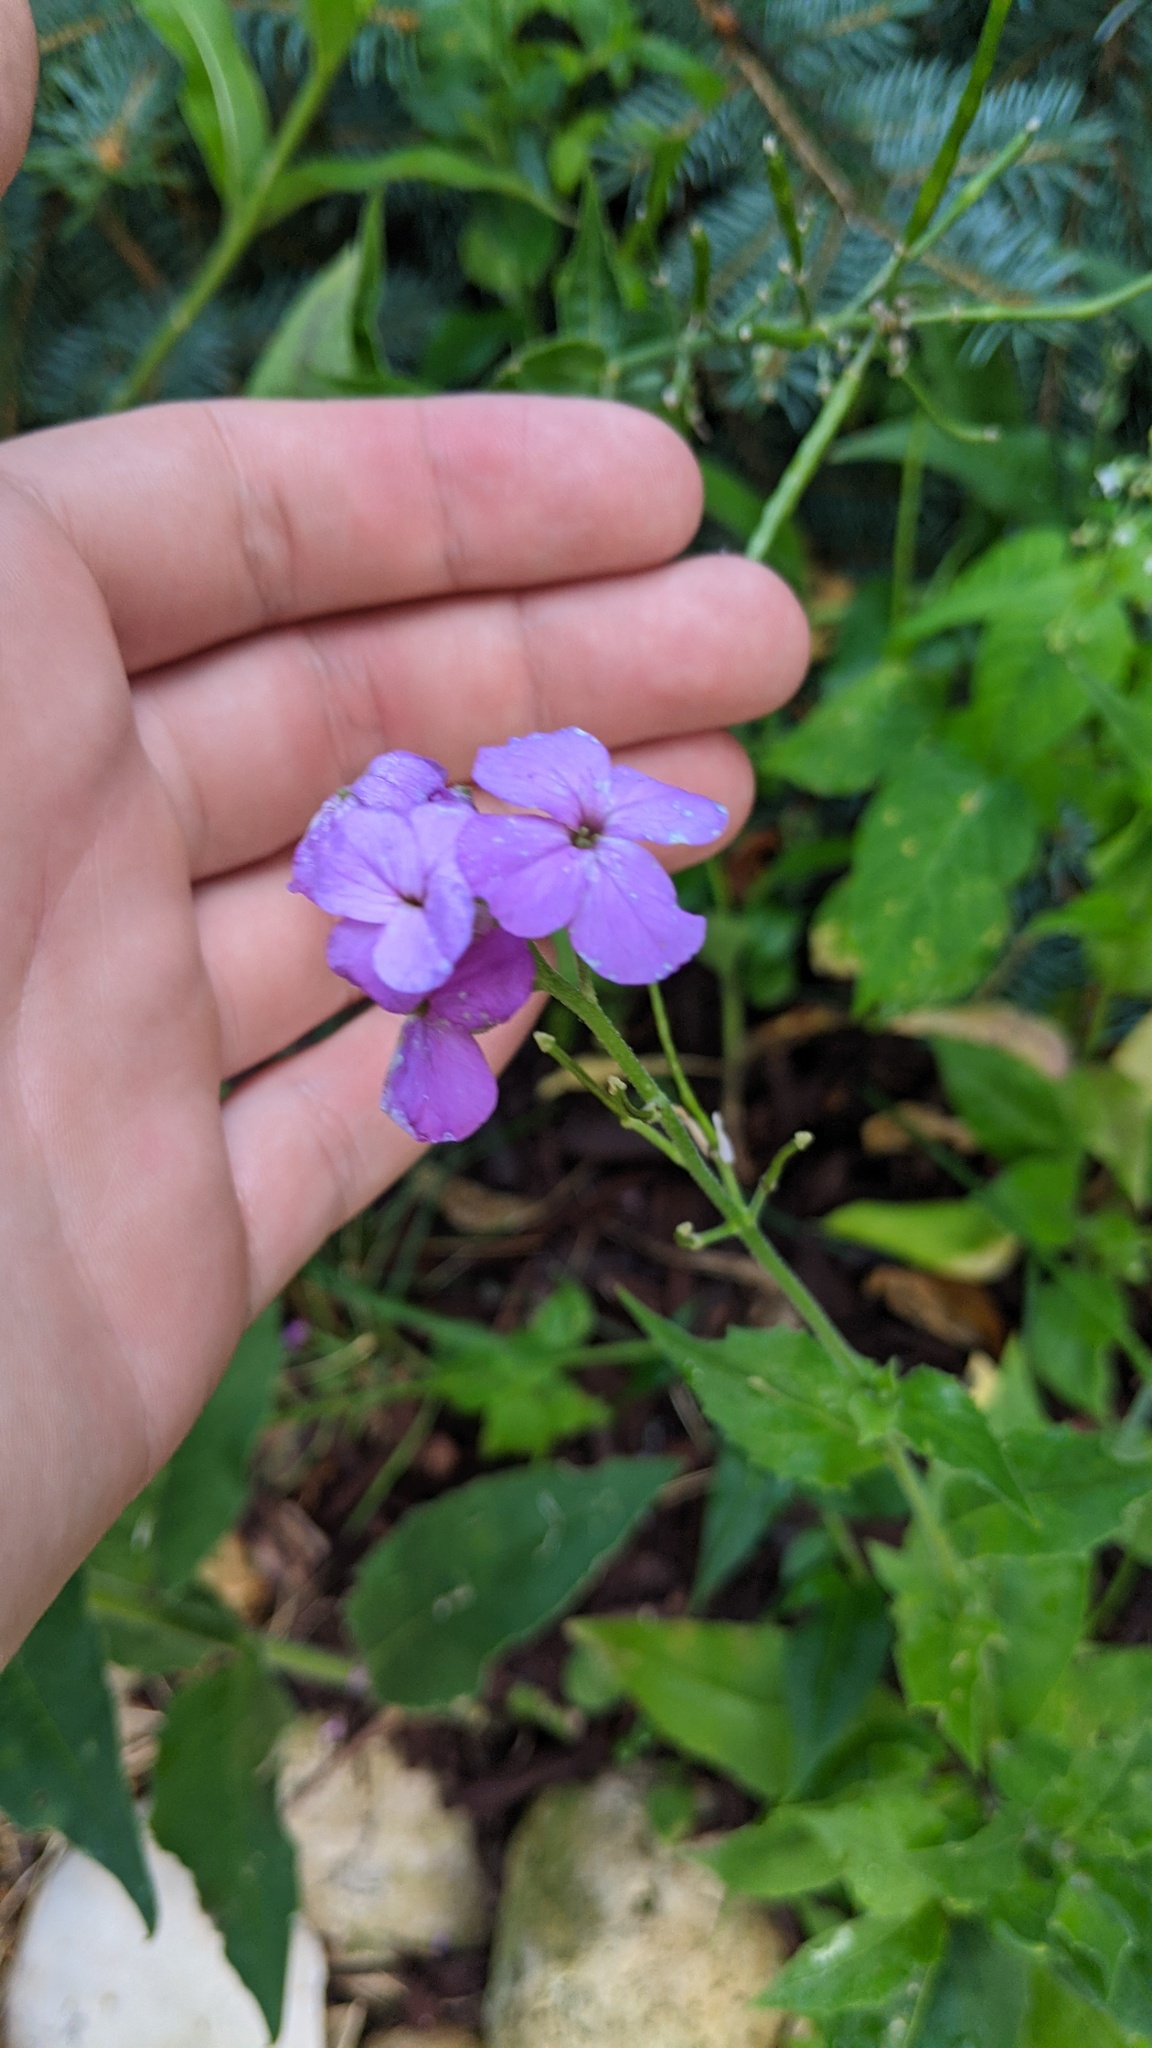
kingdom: Plantae
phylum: Tracheophyta
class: Magnoliopsida
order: Brassicales
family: Brassicaceae
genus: Hesperis
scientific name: Hesperis matronalis
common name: Dame's-violet
